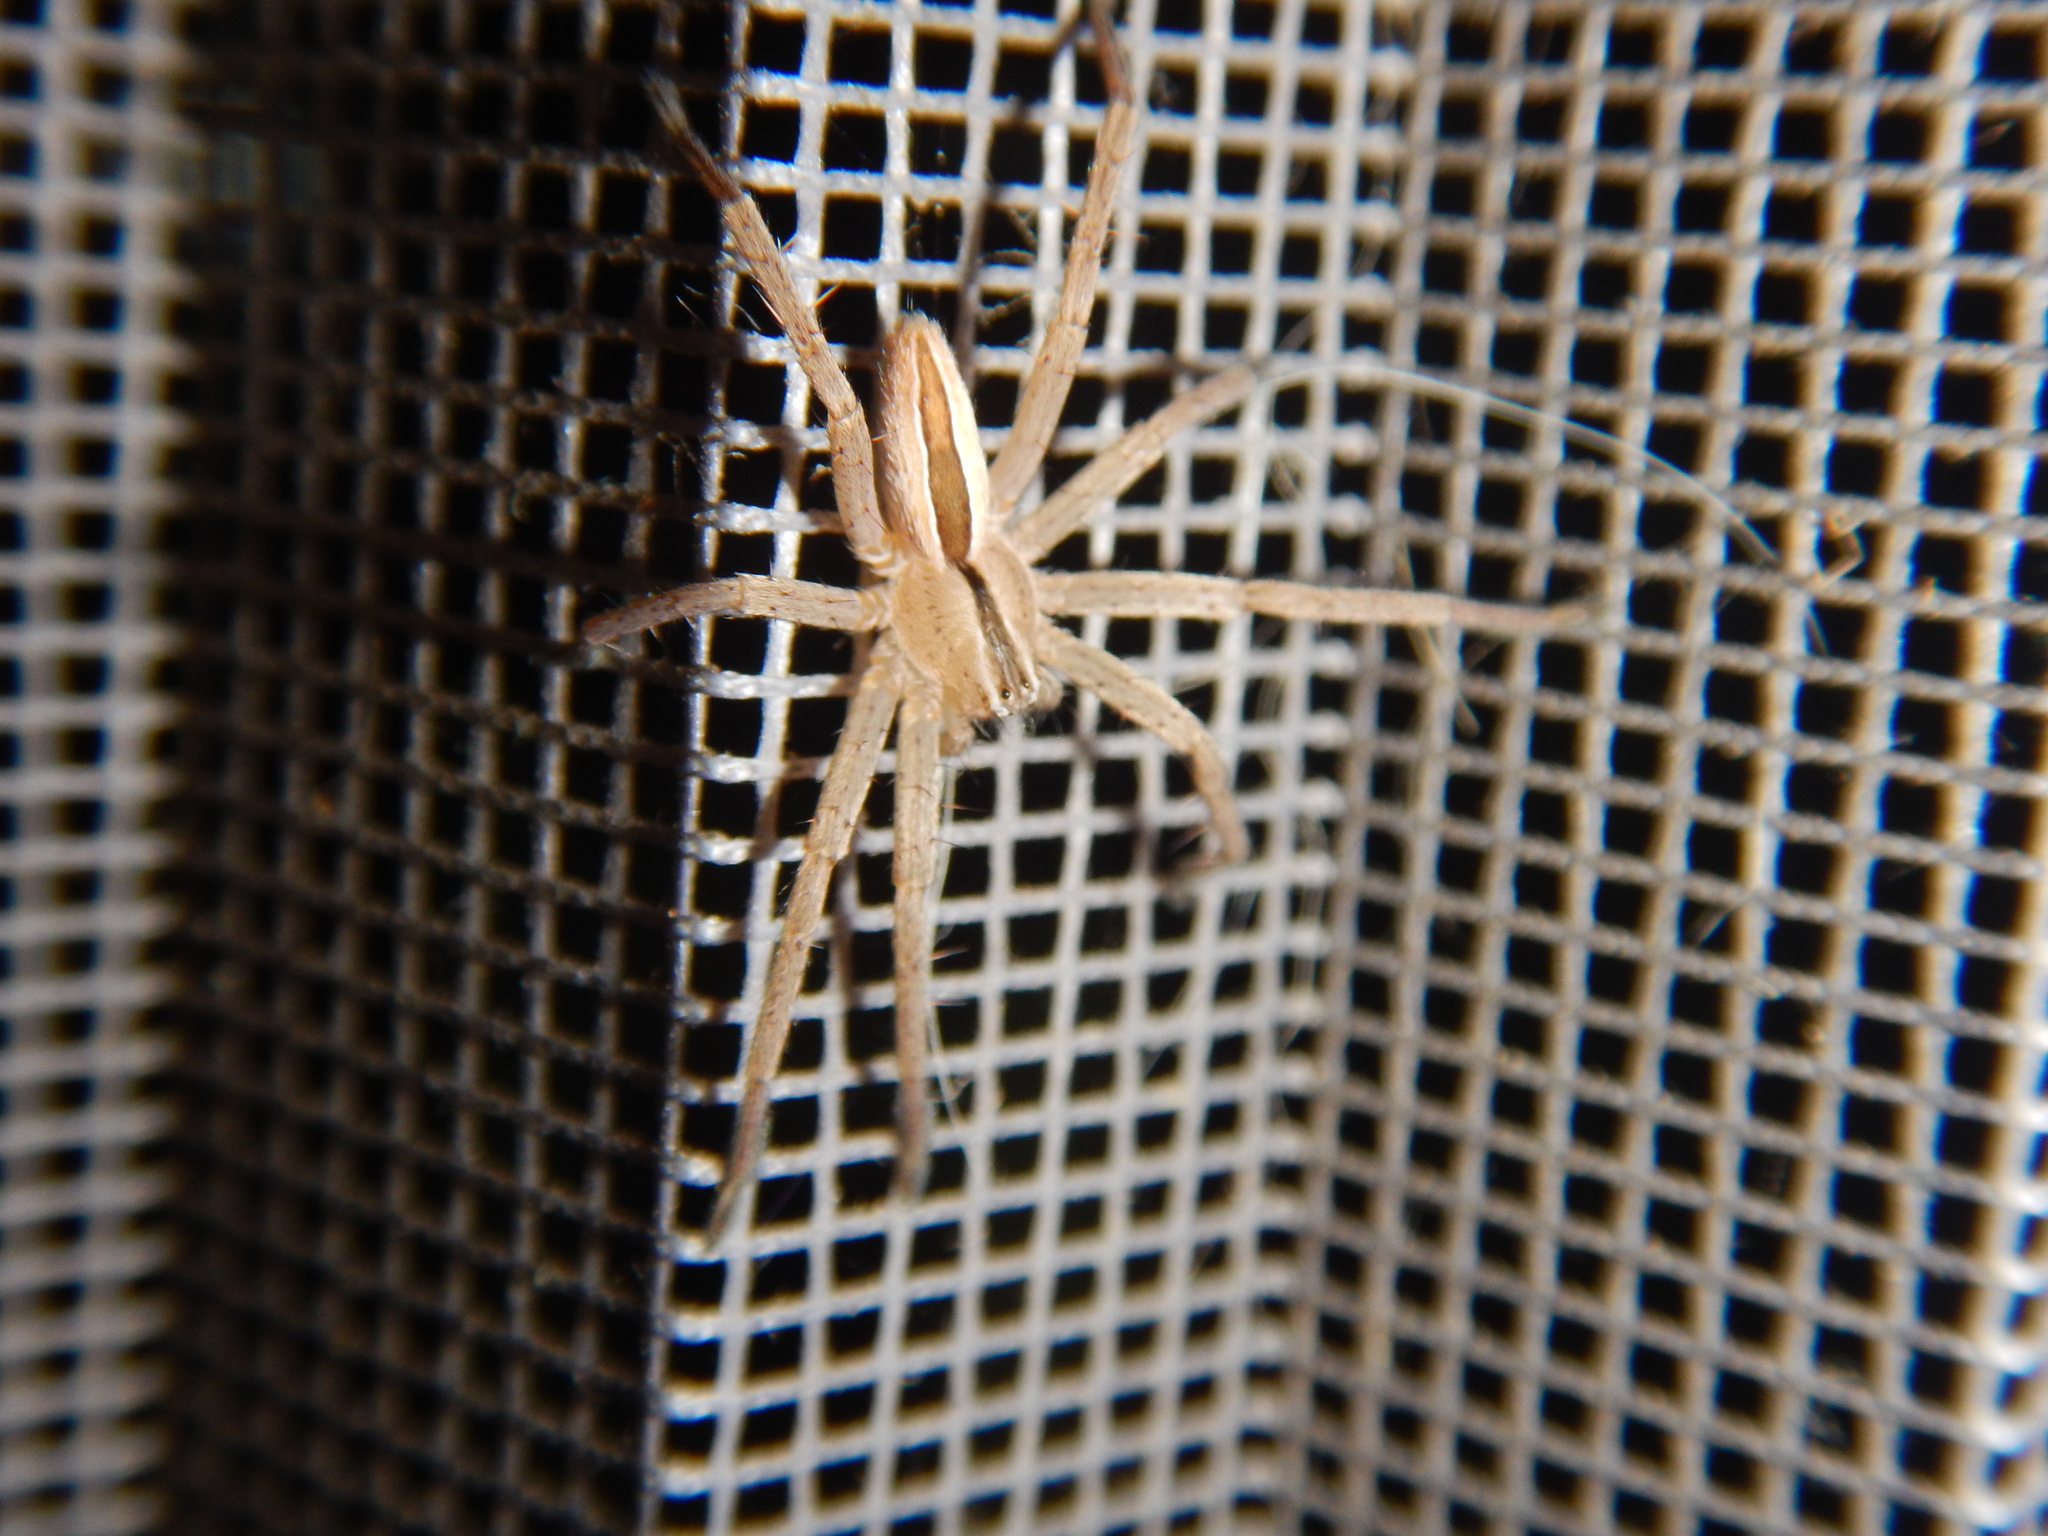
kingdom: Animalia
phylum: Arthropoda
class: Arachnida
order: Araneae
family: Sparassidae
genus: Micrommata
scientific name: Micrommata ligurina
